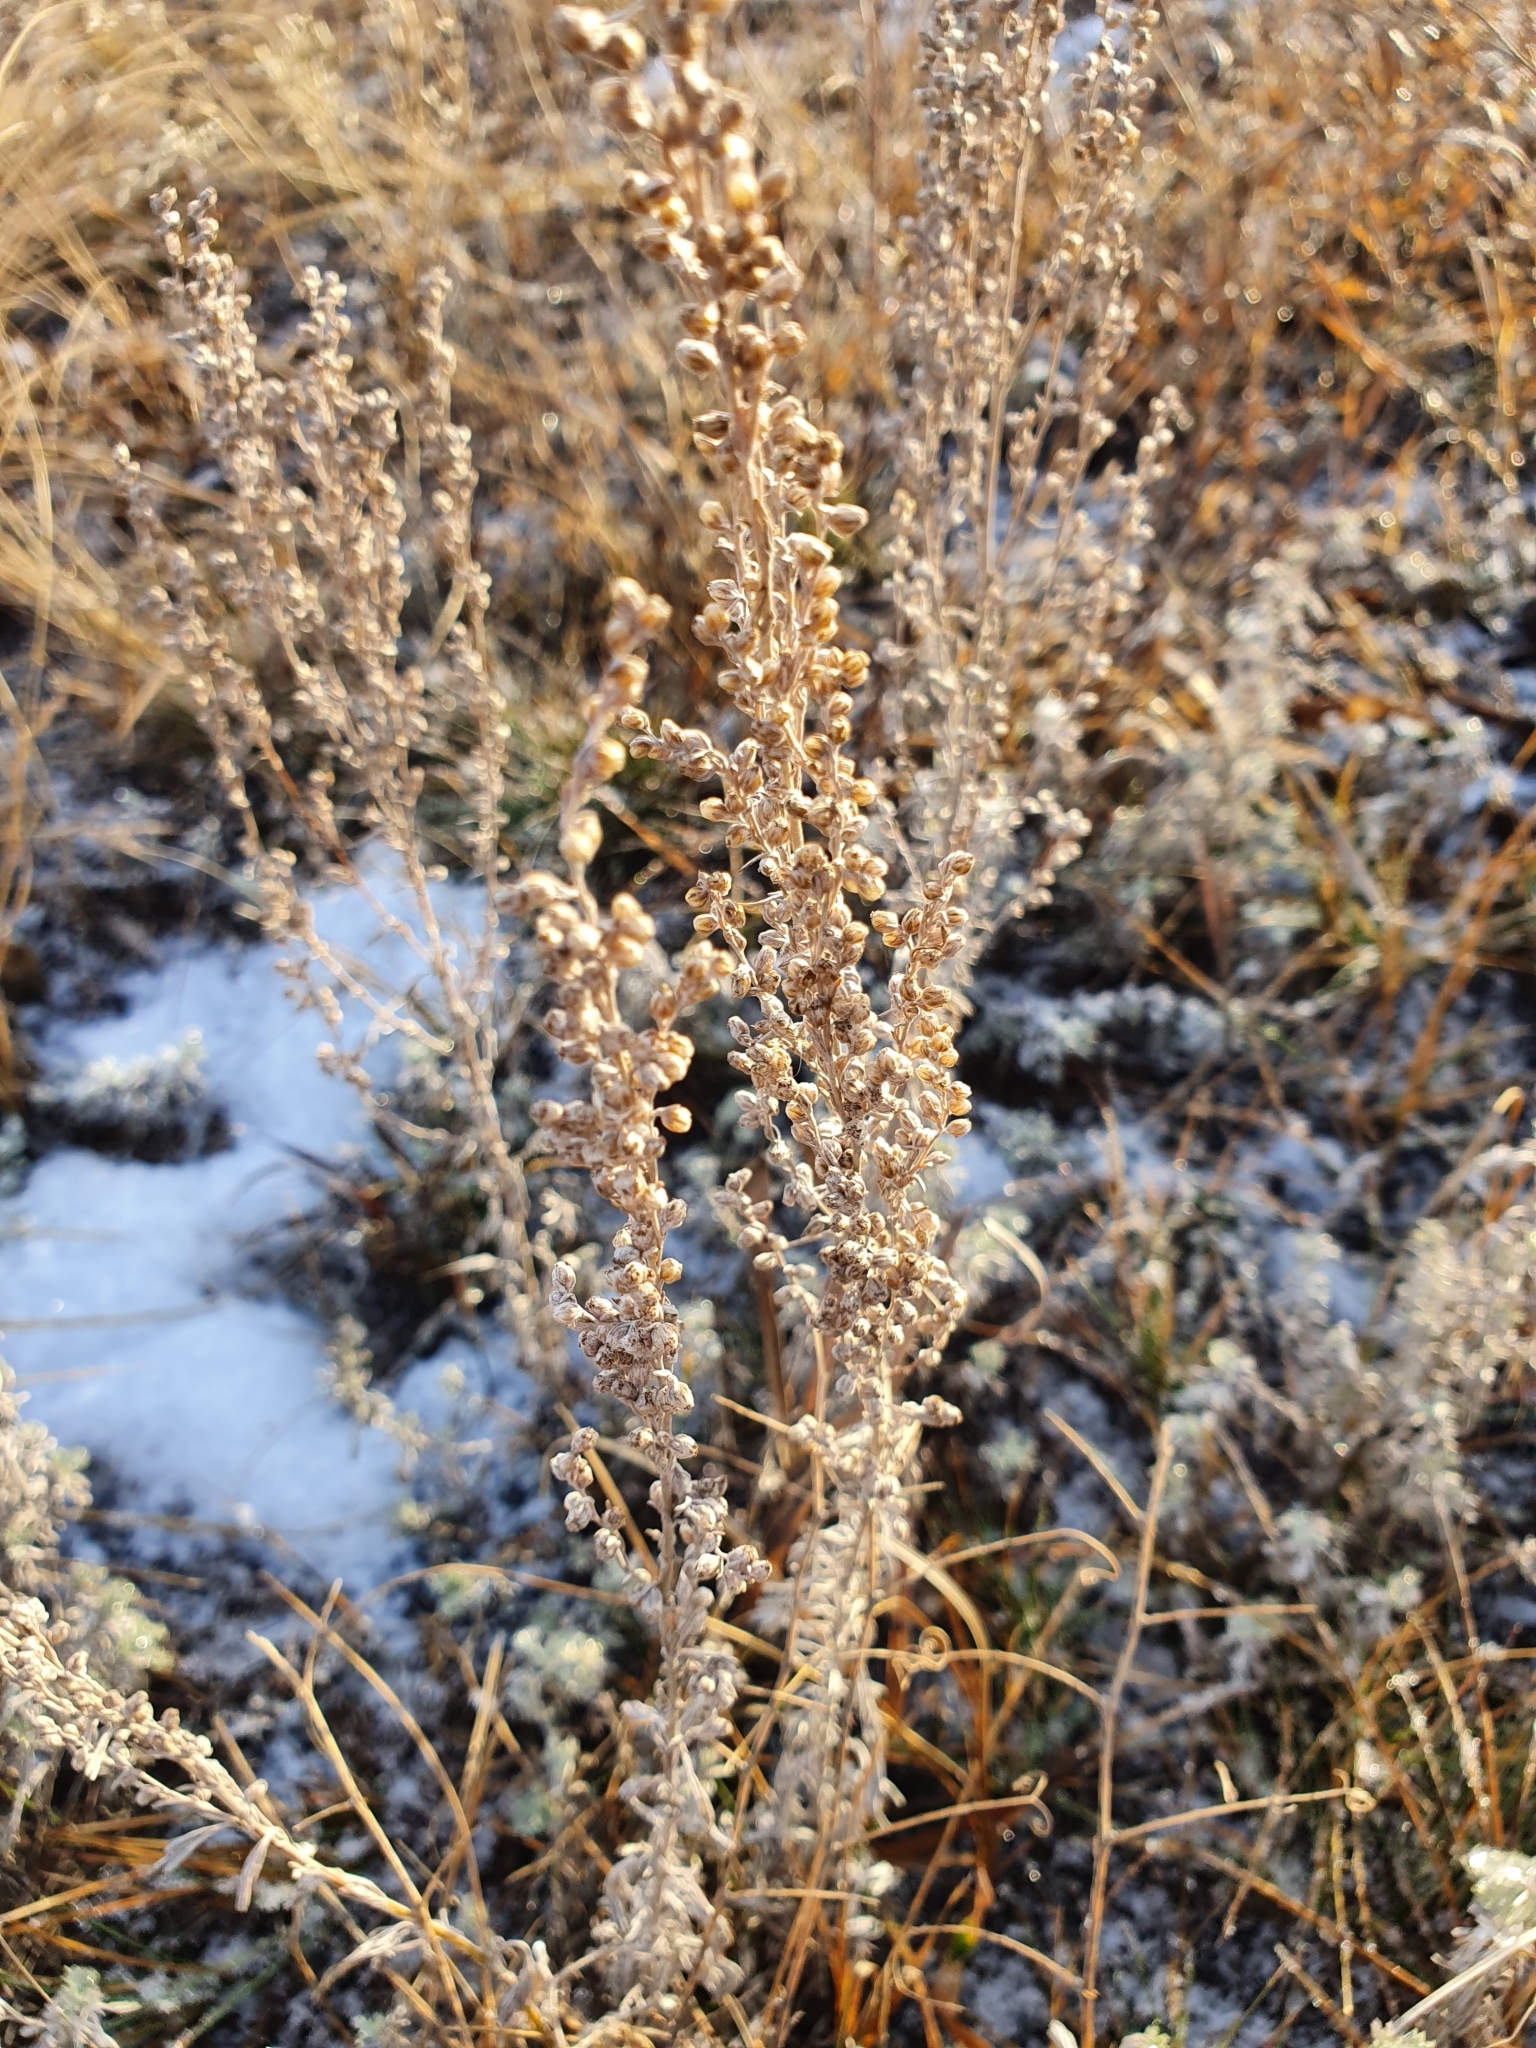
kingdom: Plantae
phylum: Tracheophyta
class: Magnoliopsida
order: Asterales
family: Asteraceae
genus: Artemisia
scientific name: Artemisia austriaca
